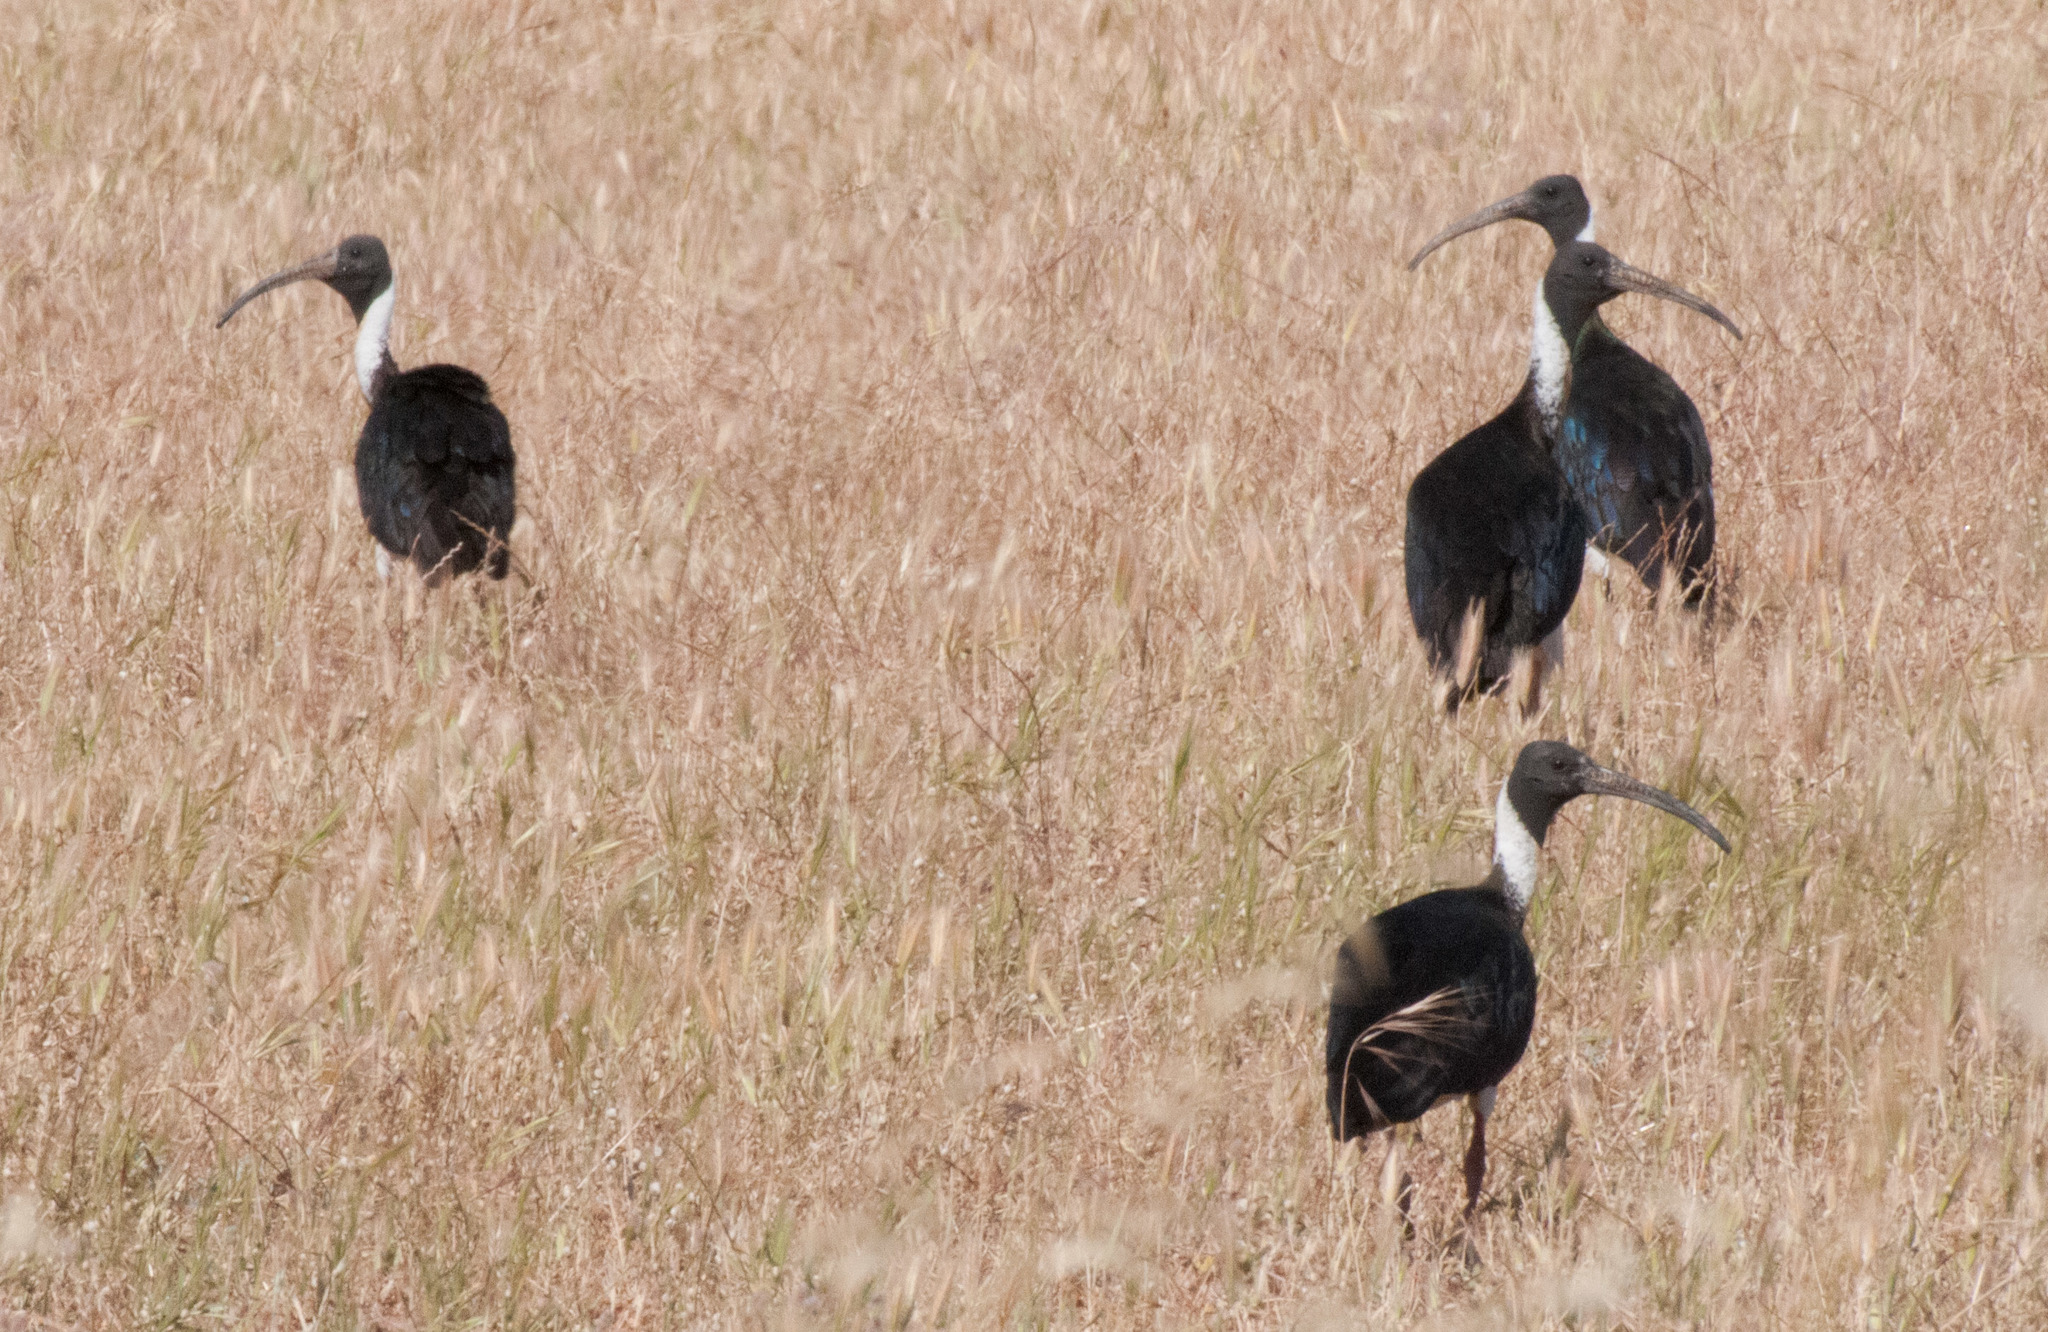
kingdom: Animalia
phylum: Chordata
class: Aves
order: Pelecaniformes
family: Threskiornithidae
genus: Threskiornis
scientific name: Threskiornis spinicollis
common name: Straw-necked ibis
